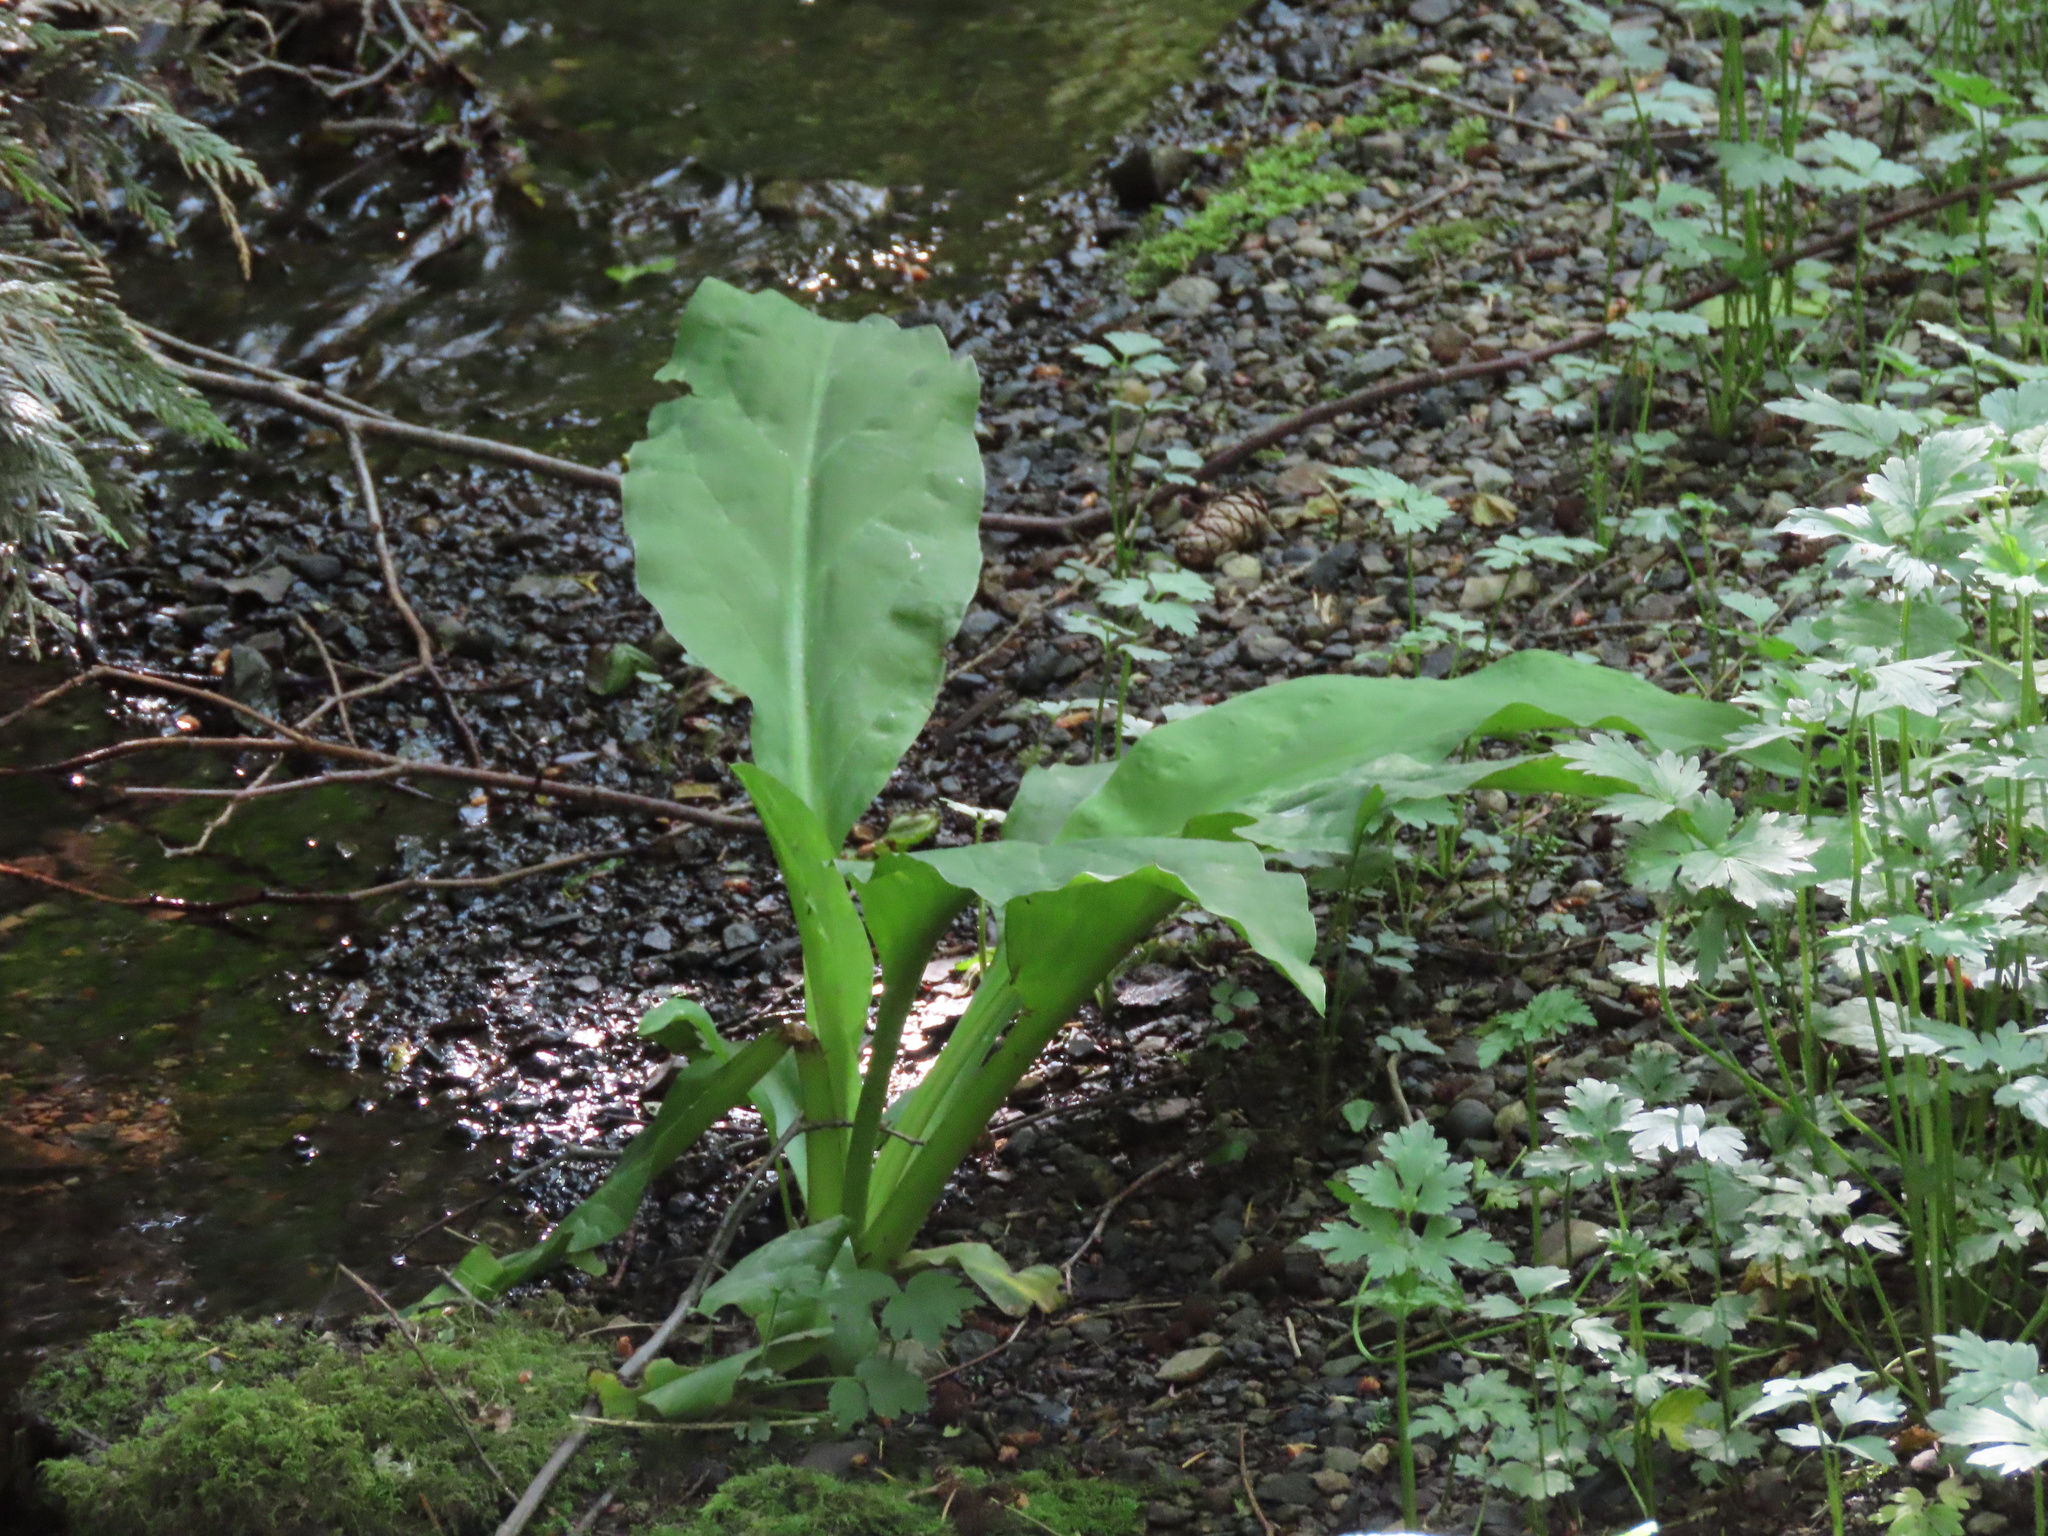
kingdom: Plantae
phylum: Tracheophyta
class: Liliopsida
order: Alismatales
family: Araceae
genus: Lysichiton
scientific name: Lysichiton americanus
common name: American skunk cabbage
